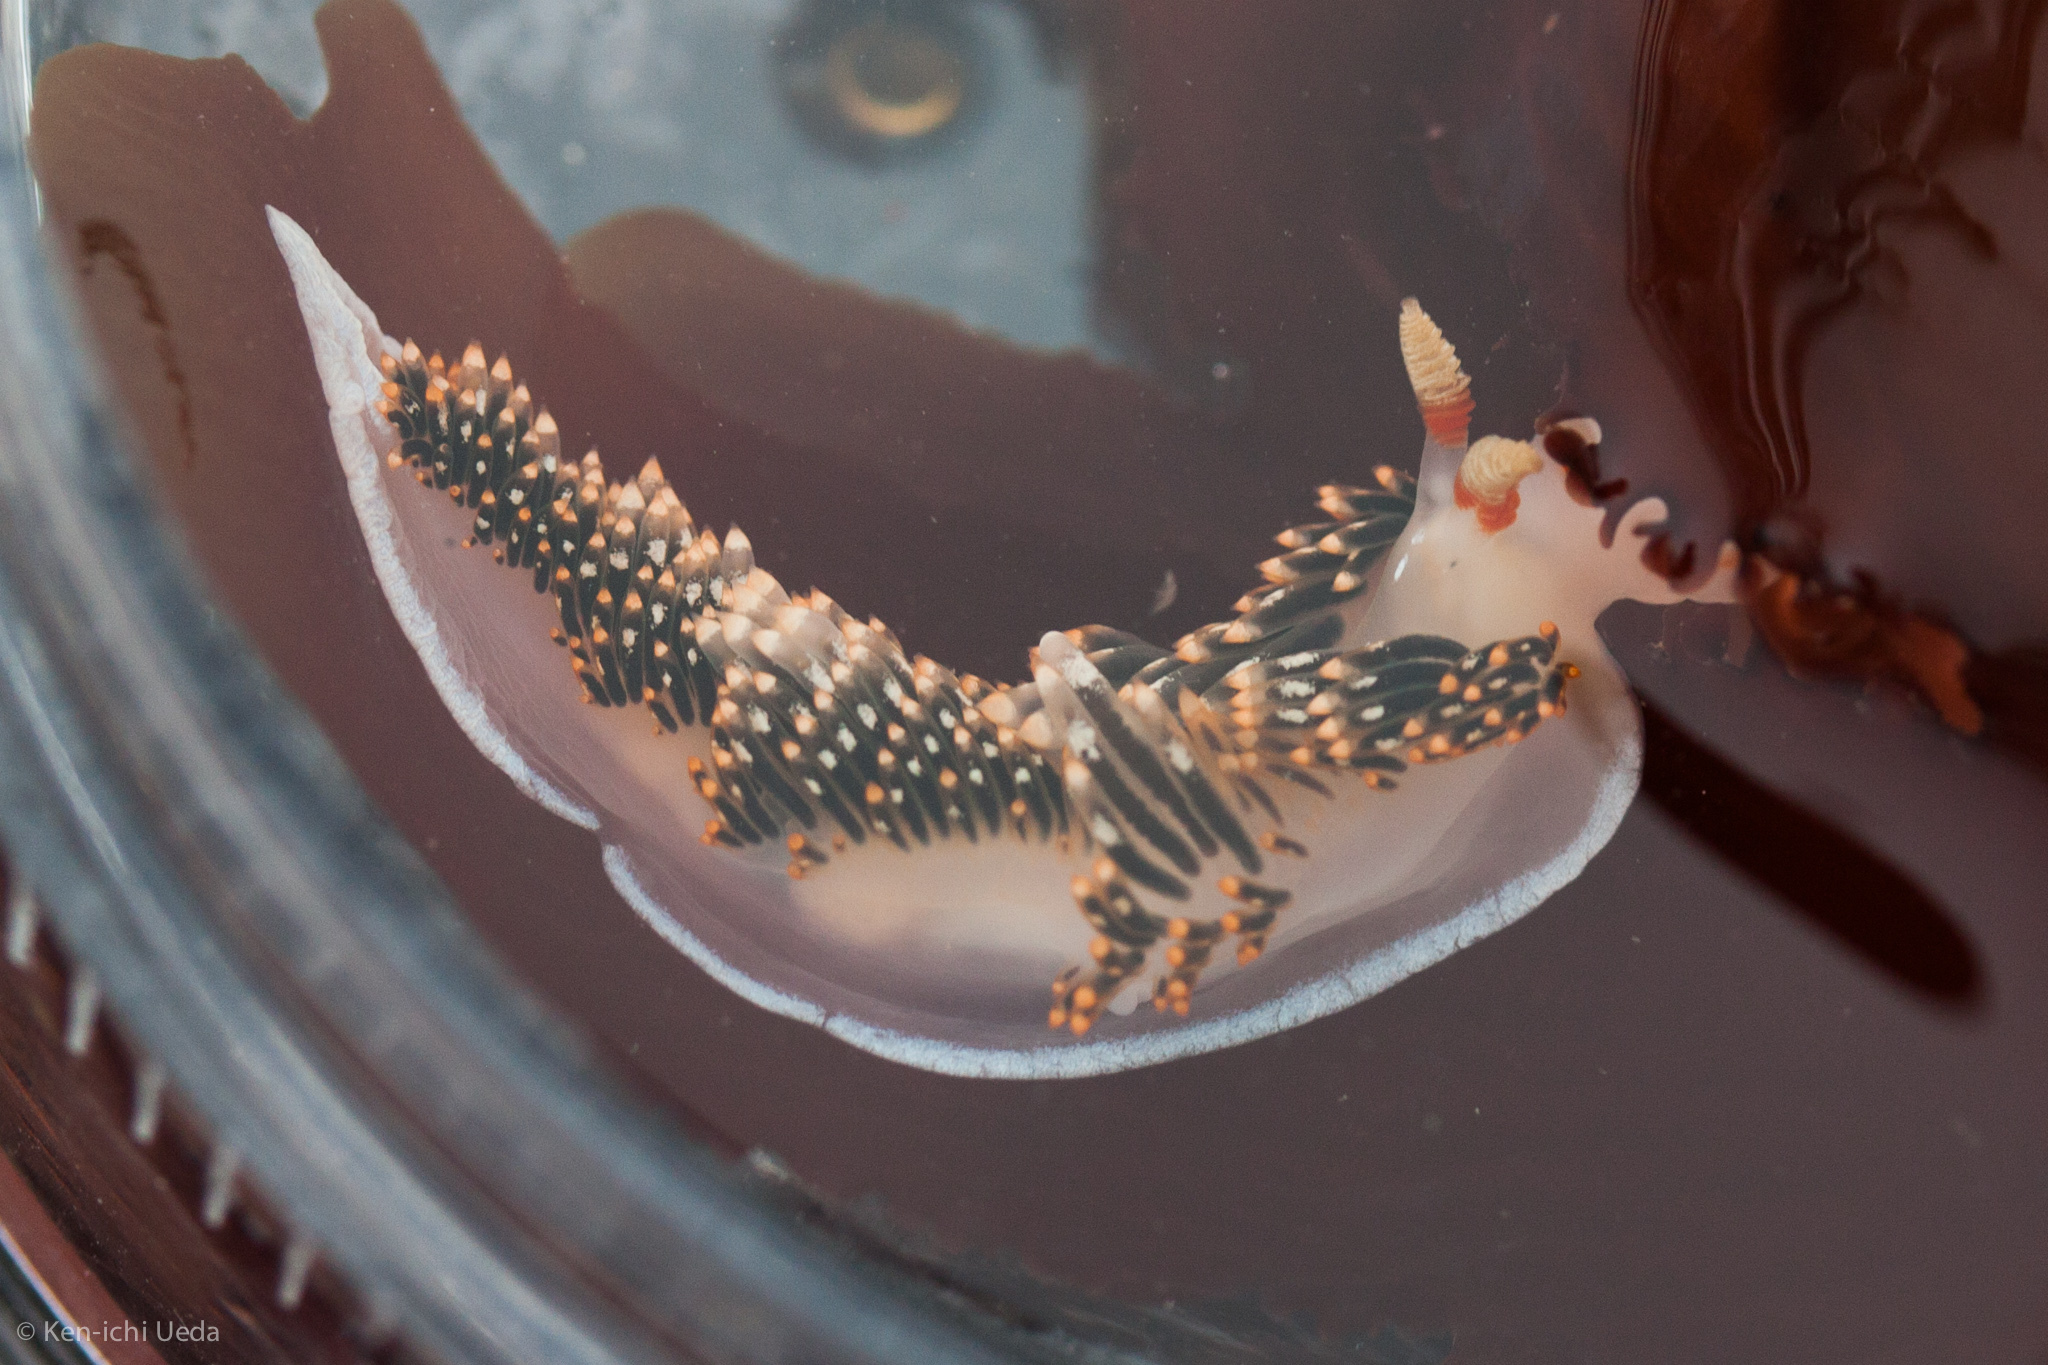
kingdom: Animalia
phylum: Mollusca
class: Gastropoda
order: Nudibranchia
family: Facelinidae
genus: Phidiana
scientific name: Phidiana hiltoni
